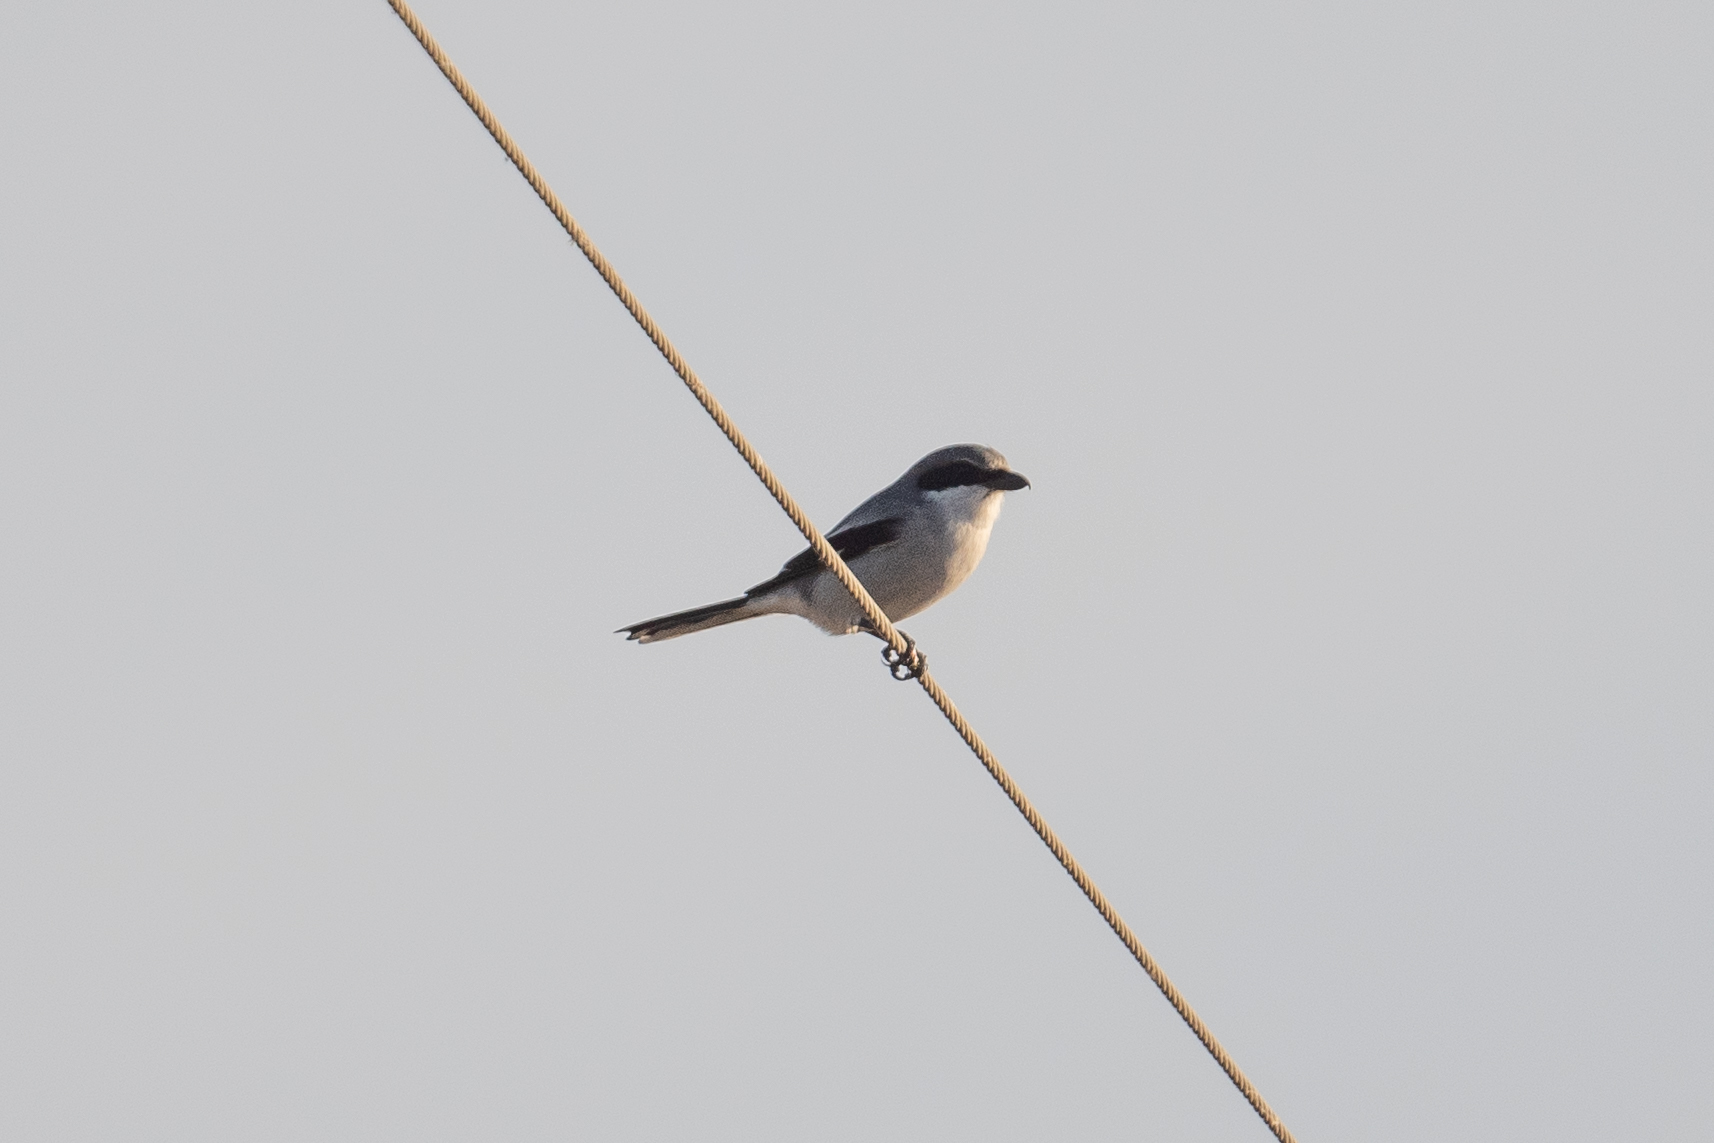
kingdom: Animalia
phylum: Chordata
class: Aves
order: Passeriformes
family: Laniidae
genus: Lanius
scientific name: Lanius ludovicianus
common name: Loggerhead shrike
